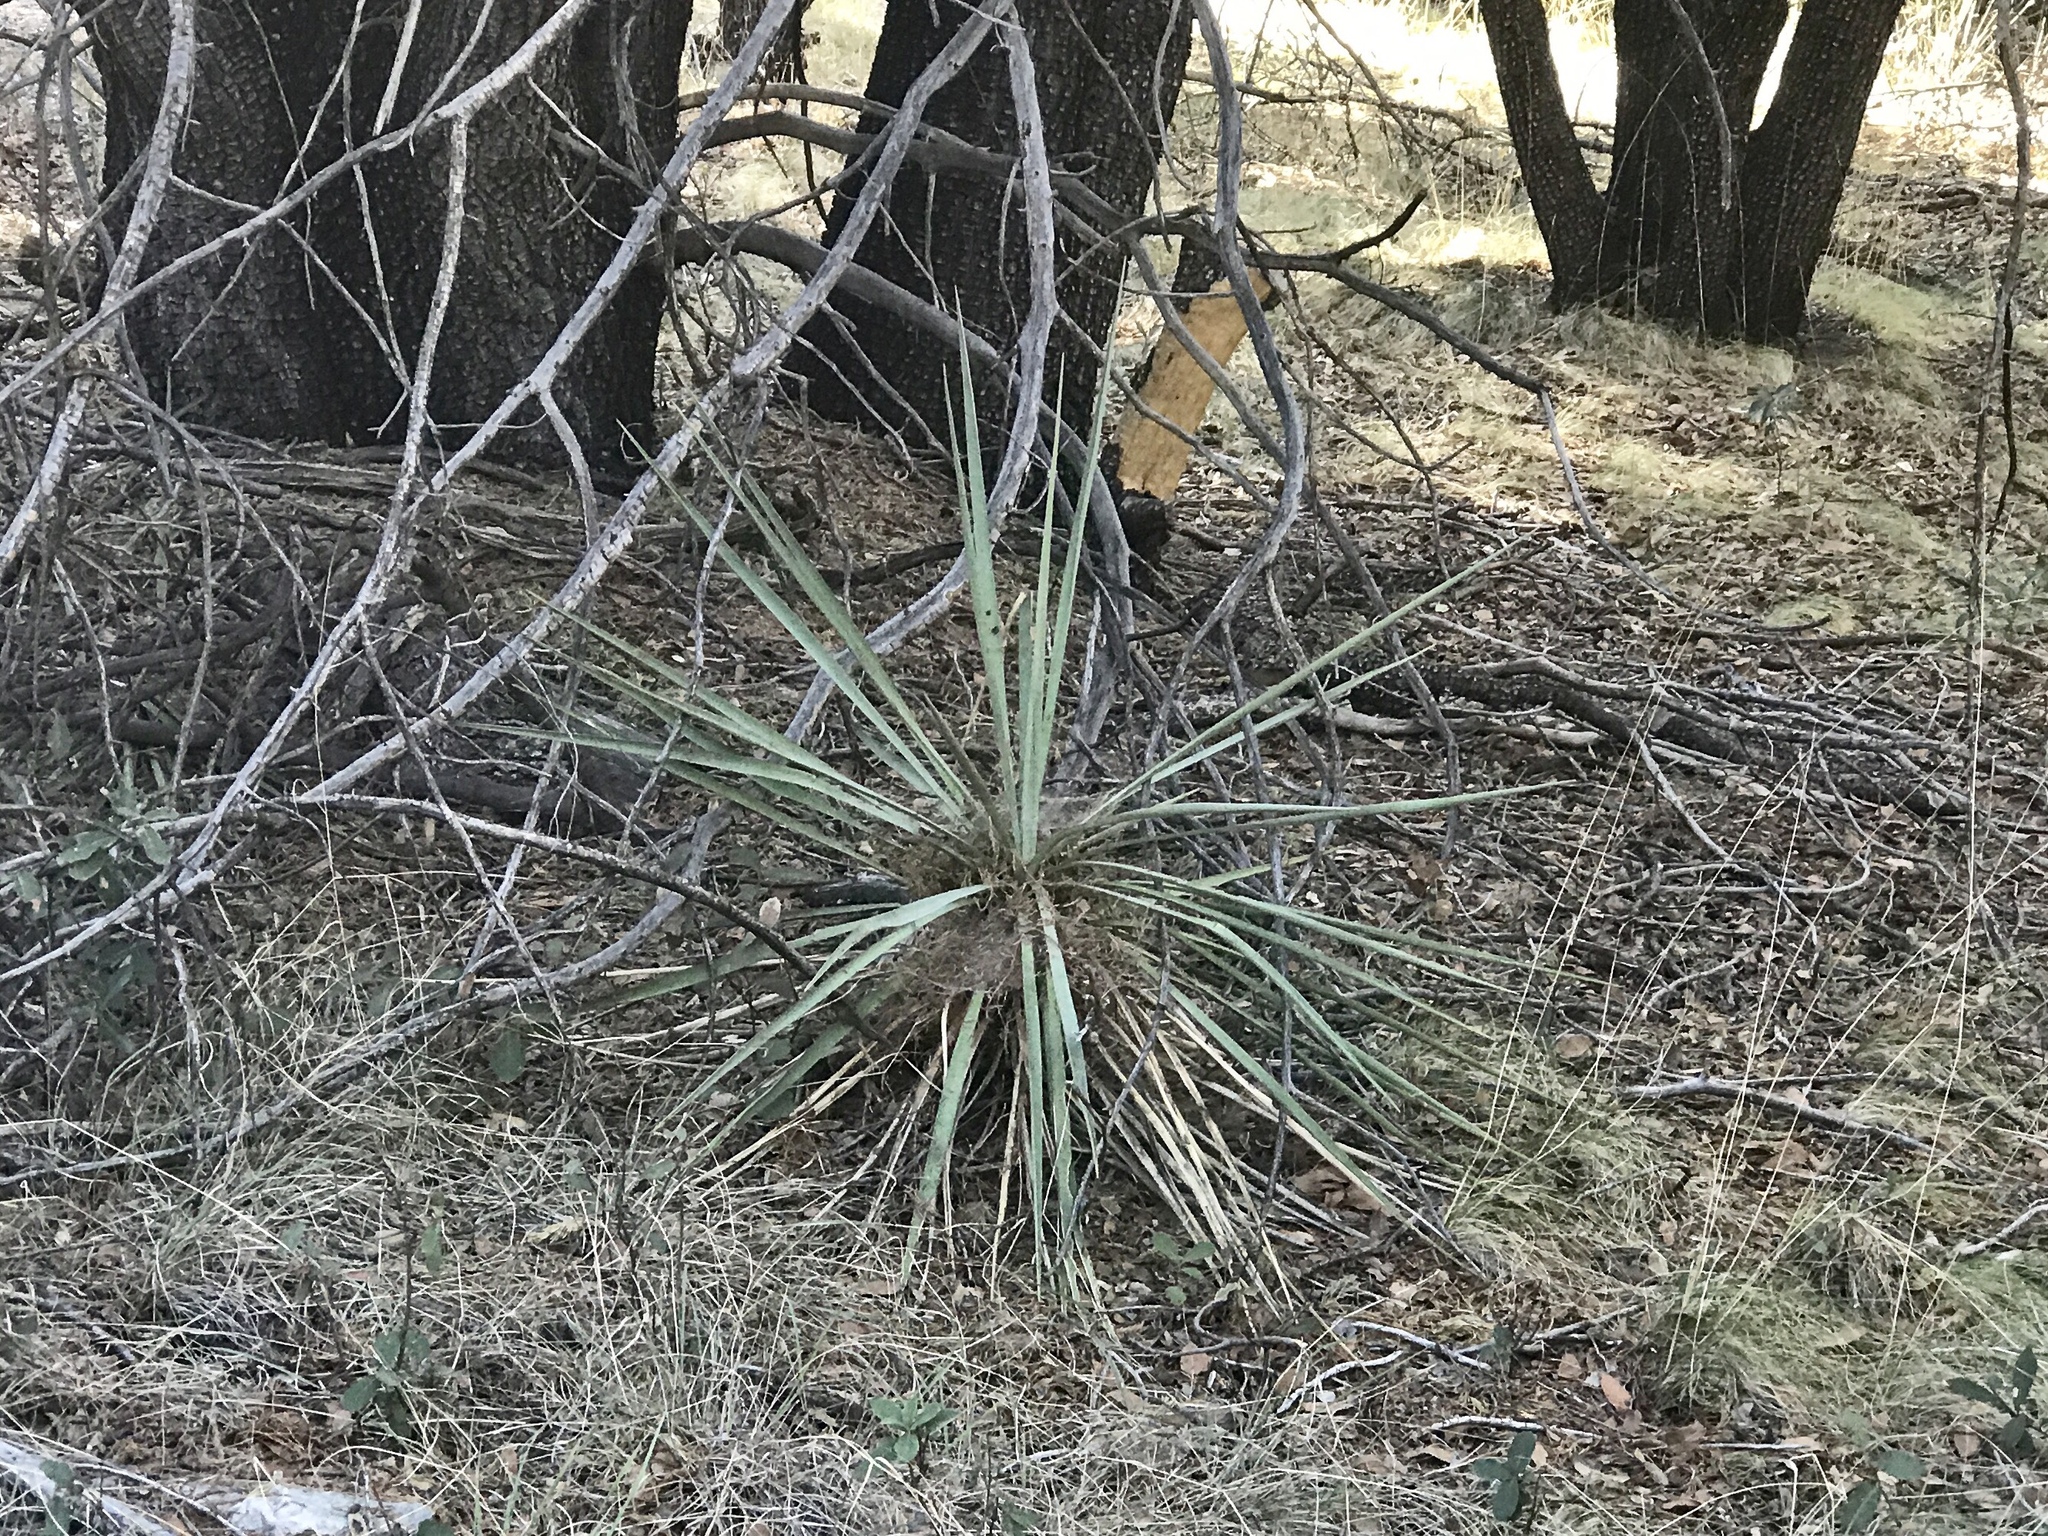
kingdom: Plantae
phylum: Tracheophyta
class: Liliopsida
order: Asparagales
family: Asparagaceae
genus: Yucca
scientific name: Yucca schottii
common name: Hoary yucca
